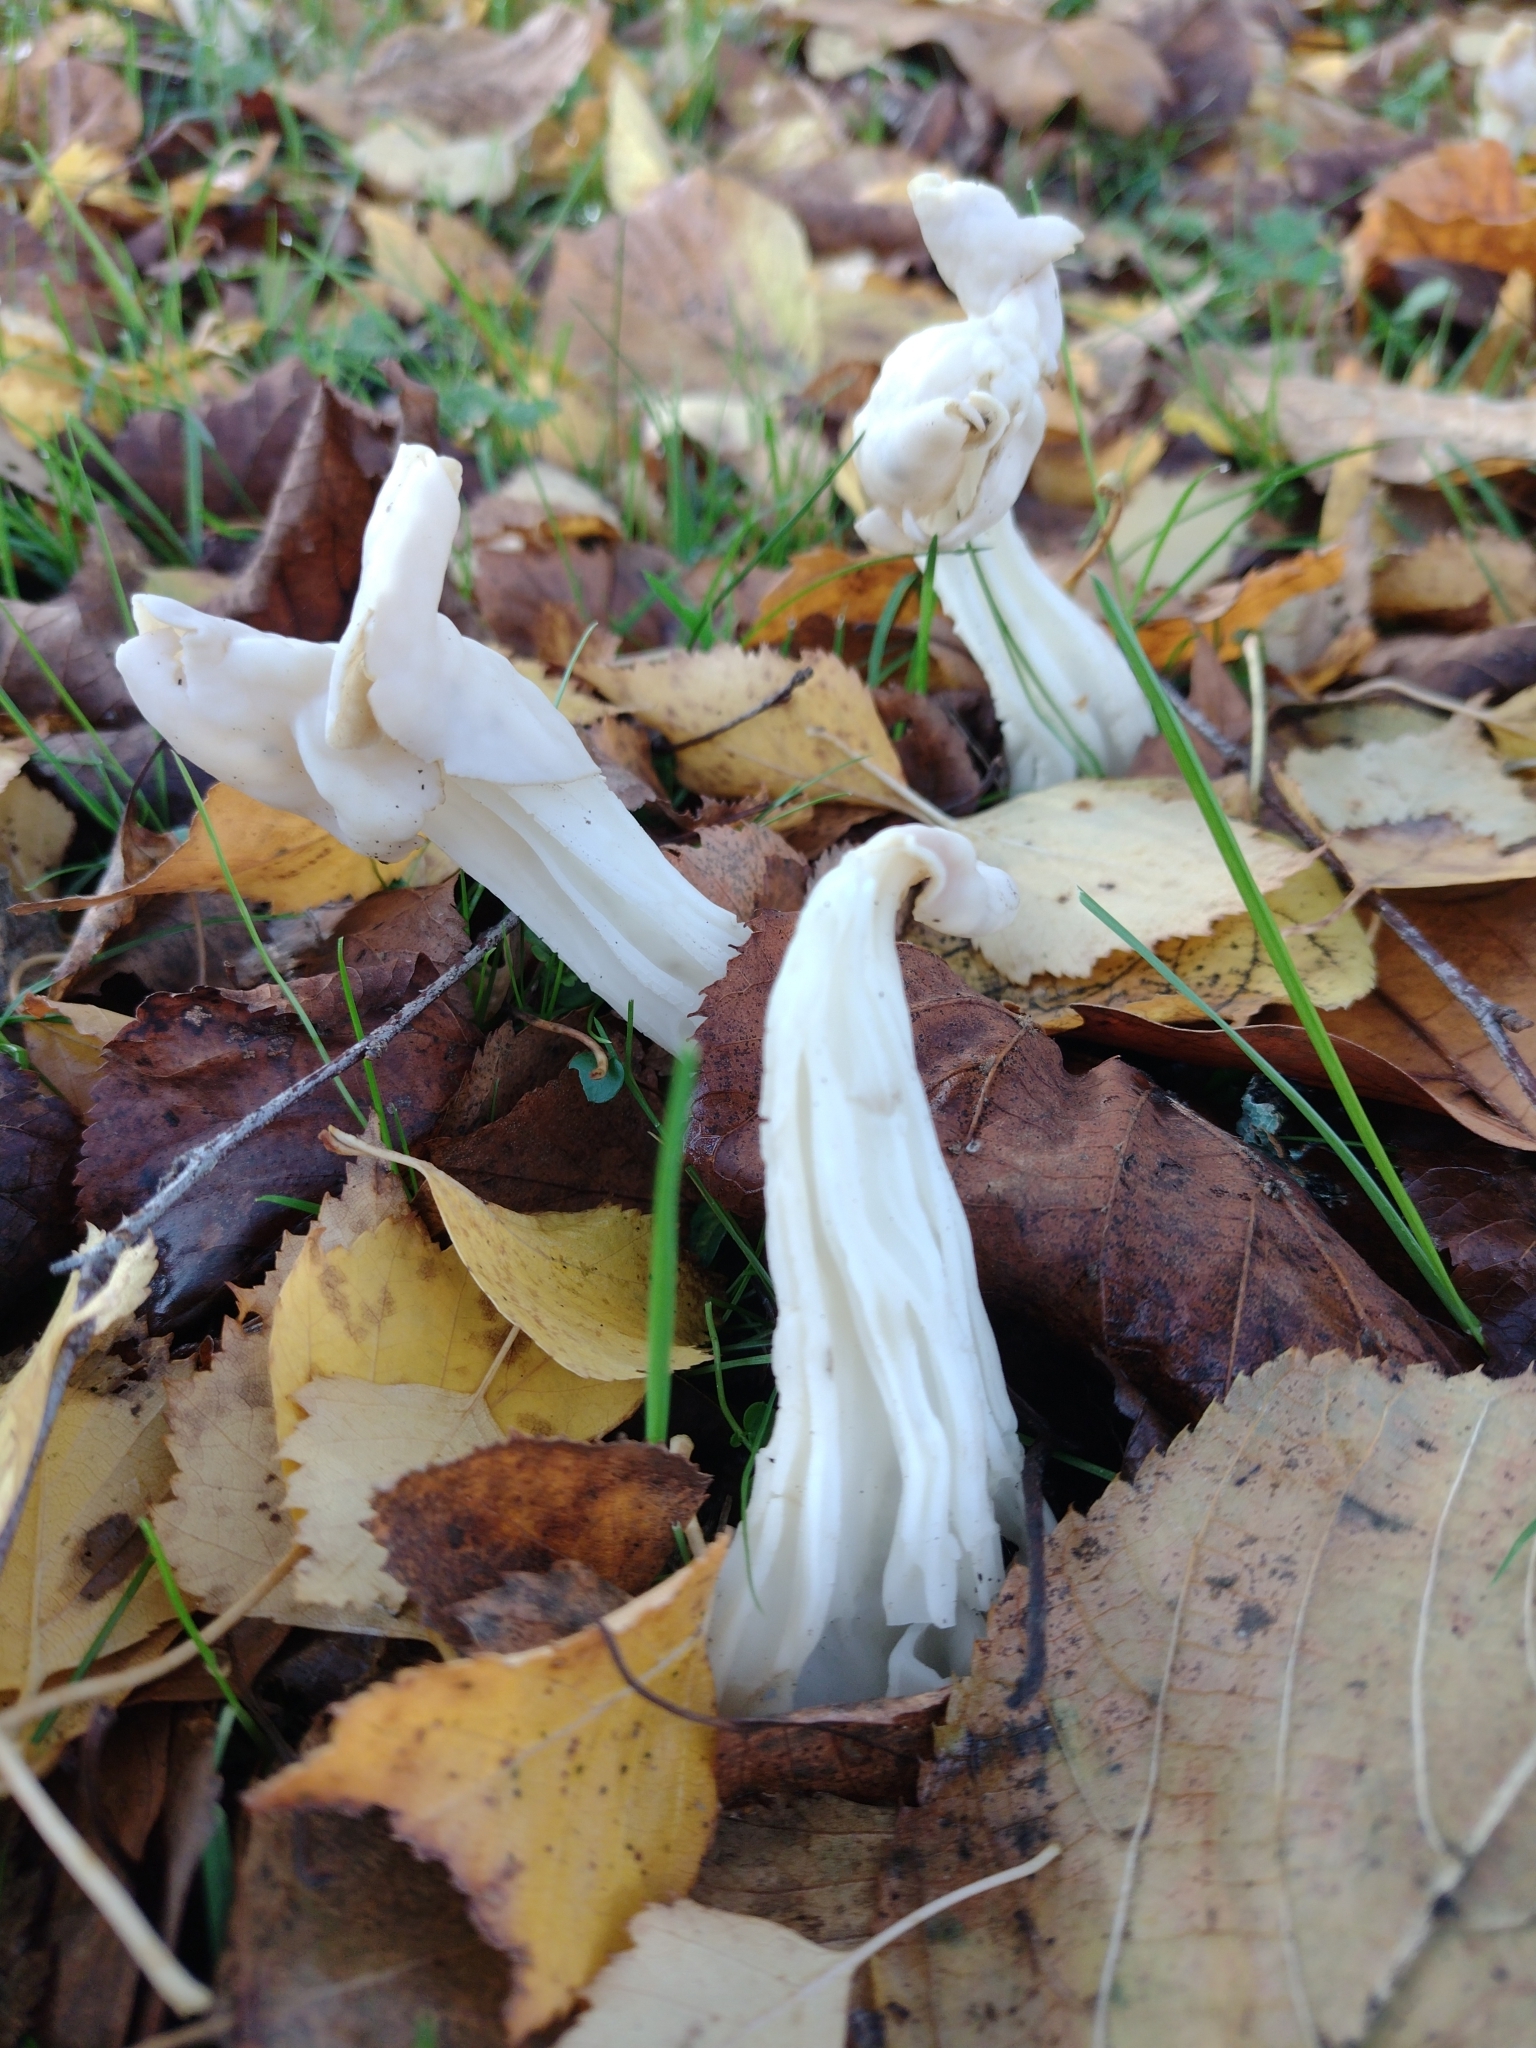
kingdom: Fungi
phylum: Ascomycota
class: Pezizomycetes
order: Pezizales
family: Helvellaceae
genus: Helvella
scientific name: Helvella crispa
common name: White saddle
